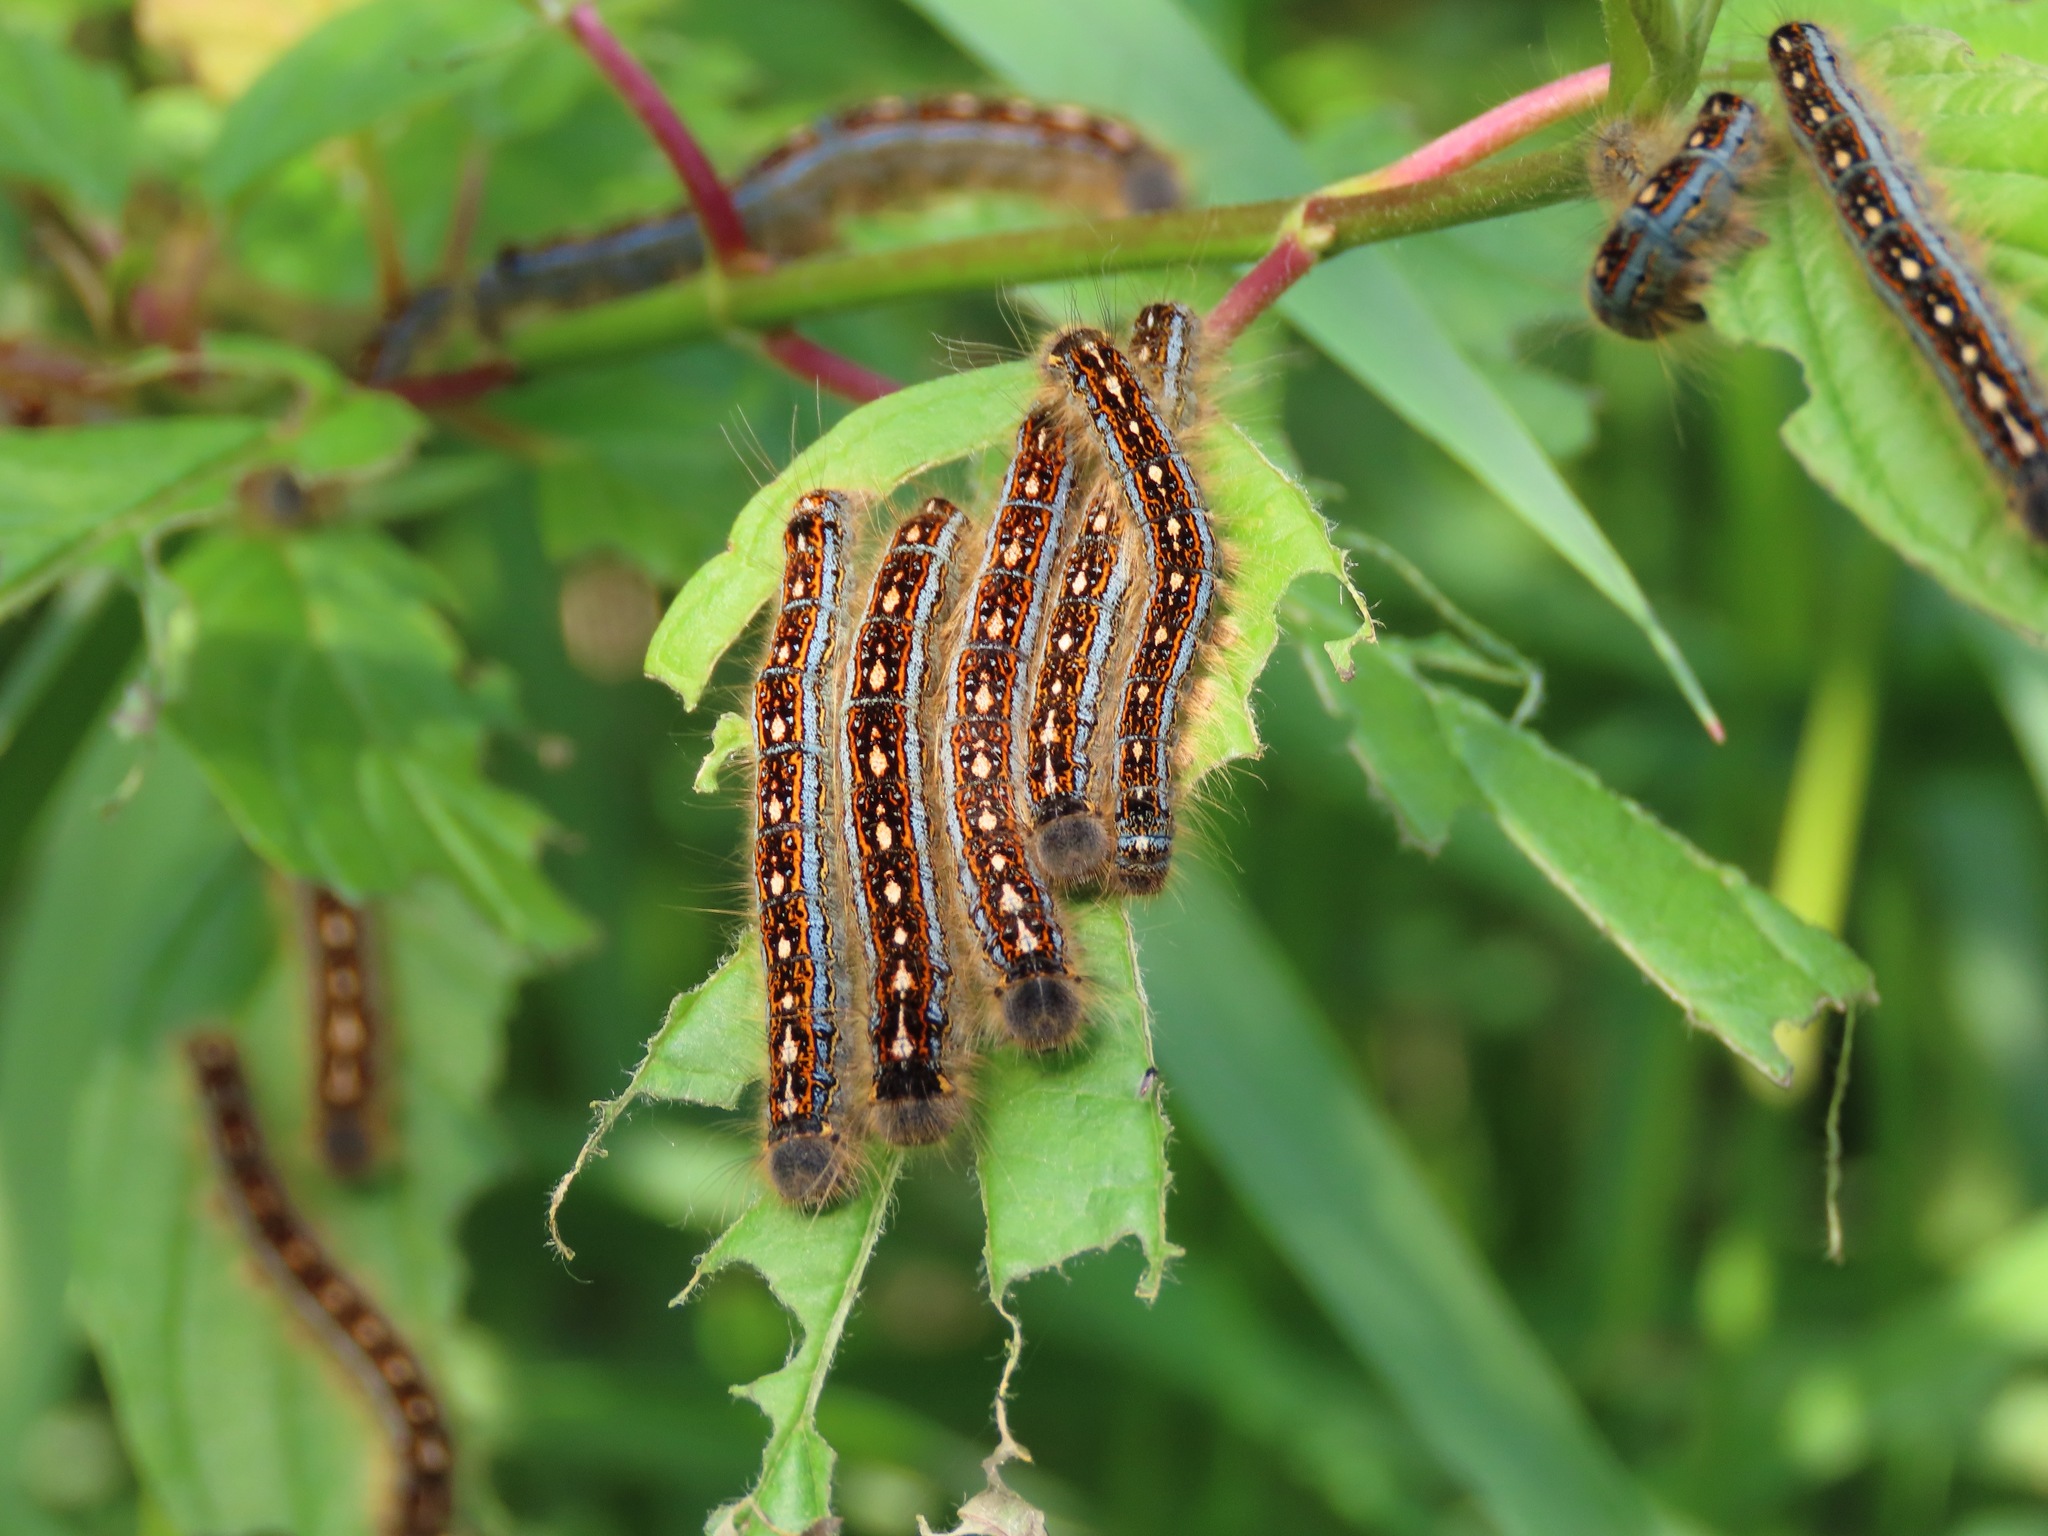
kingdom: Animalia
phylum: Arthropoda
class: Insecta
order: Lepidoptera
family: Lasiocampidae
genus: Malacosoma
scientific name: Malacosoma disstria
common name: Forest tent caterpillar
